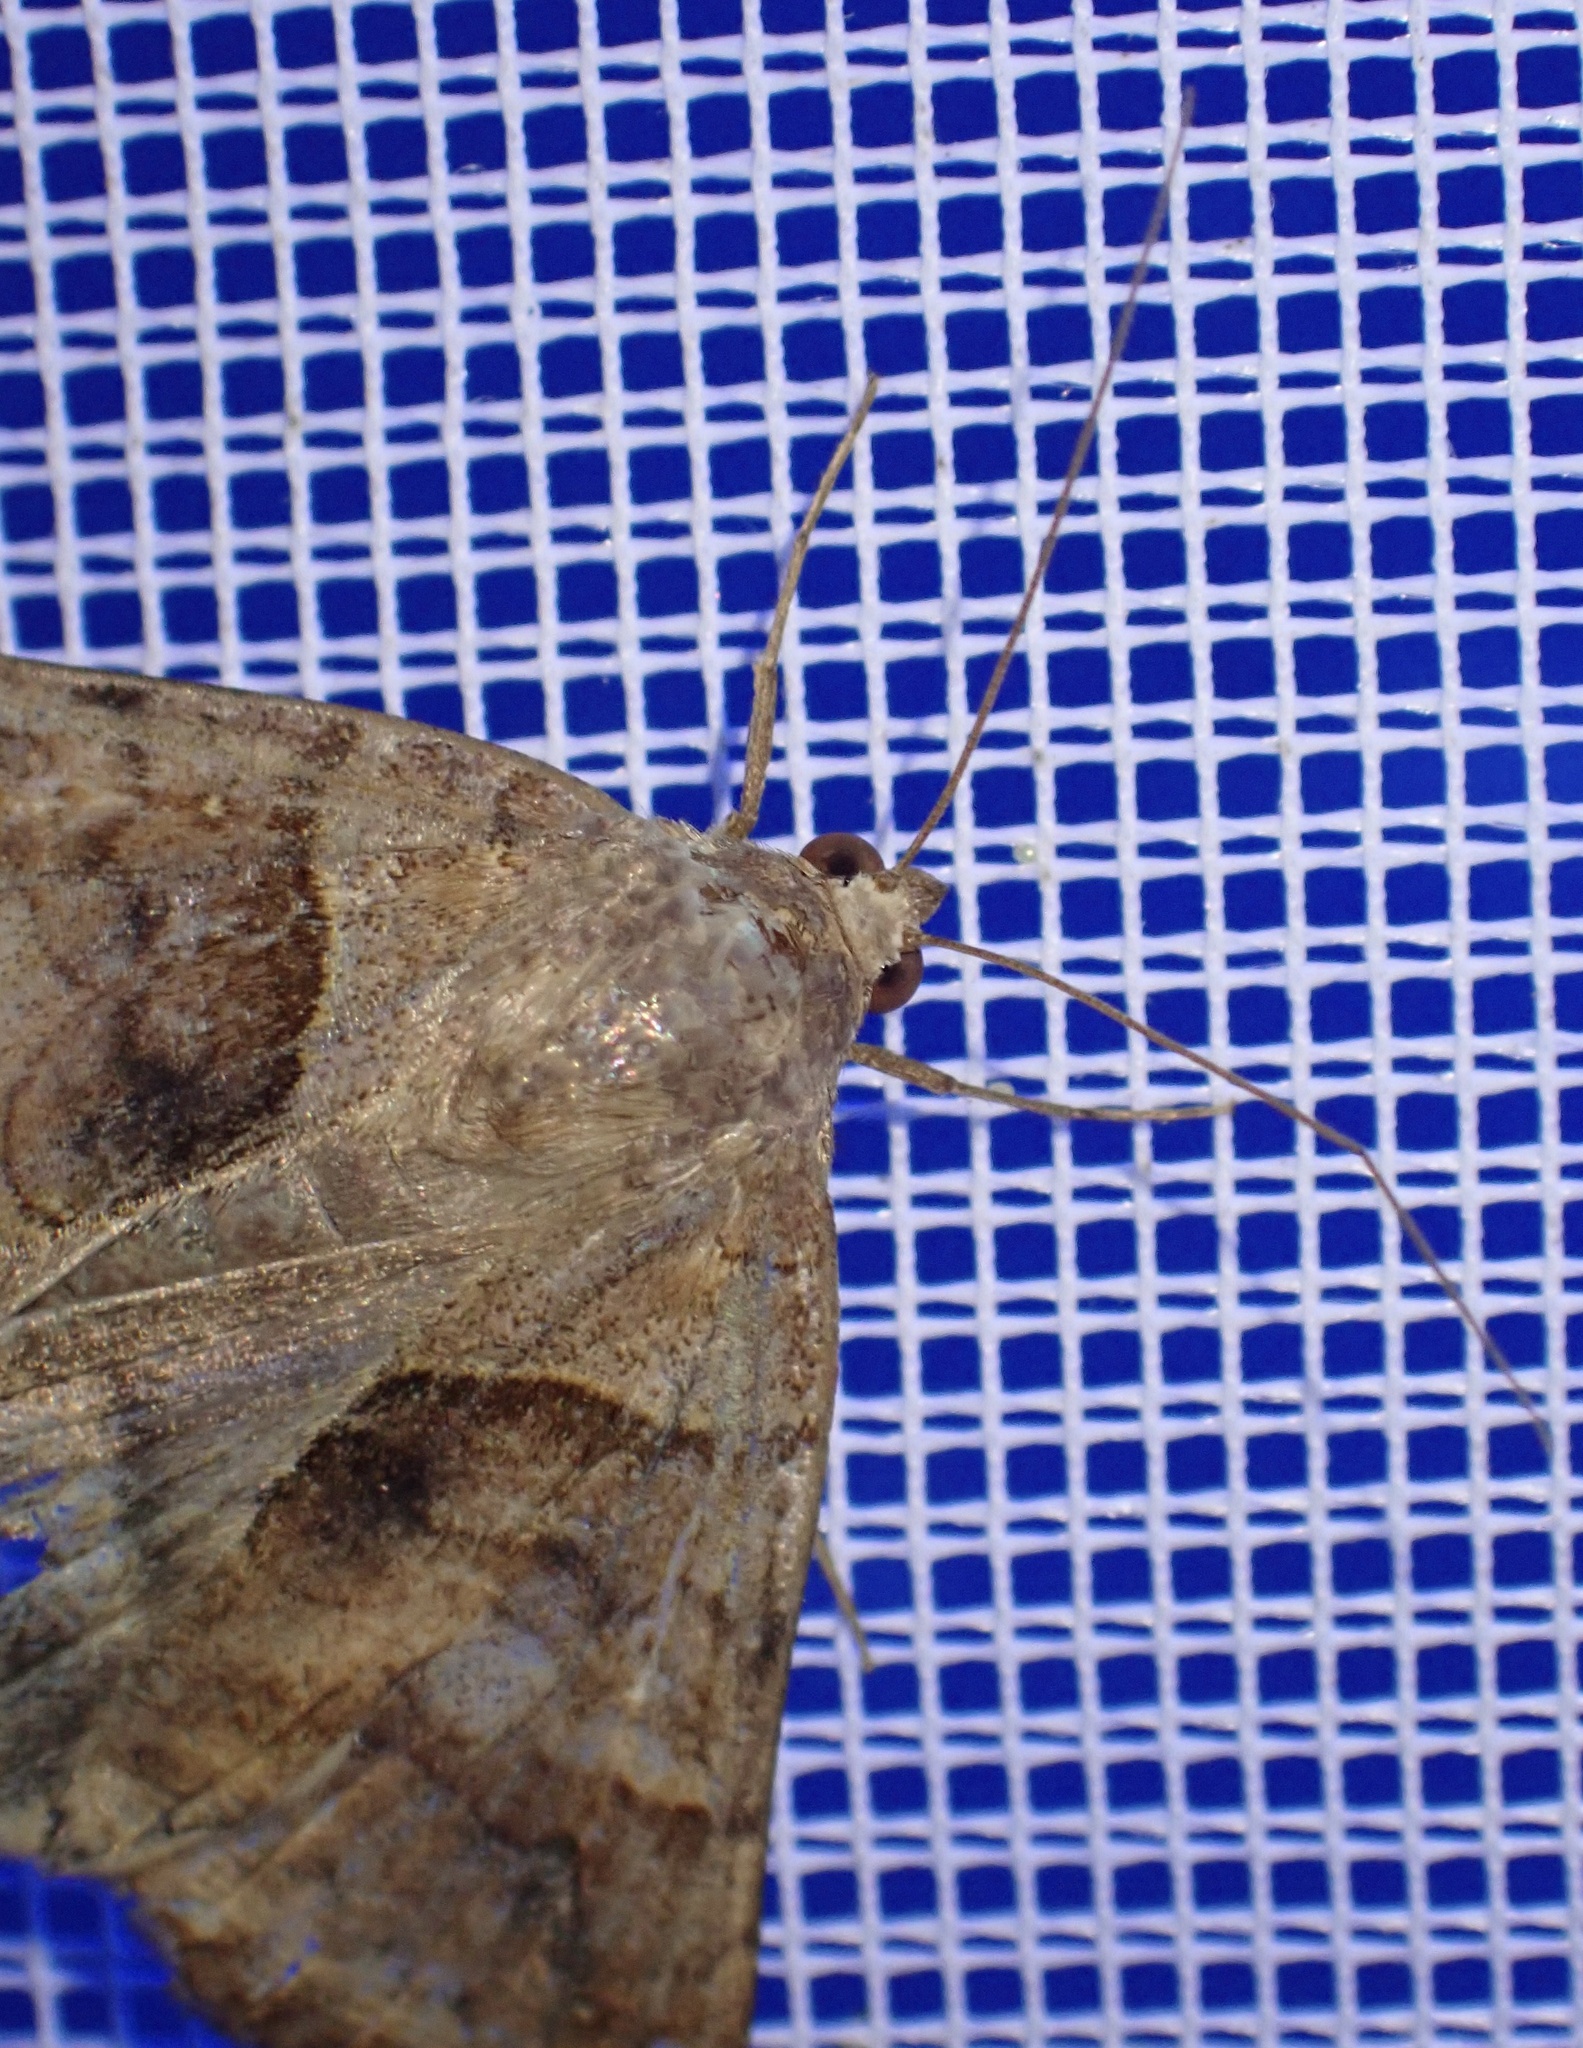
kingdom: Animalia
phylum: Arthropoda
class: Insecta
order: Lepidoptera
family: Erebidae
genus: Mocis
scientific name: Mocis mayeri
